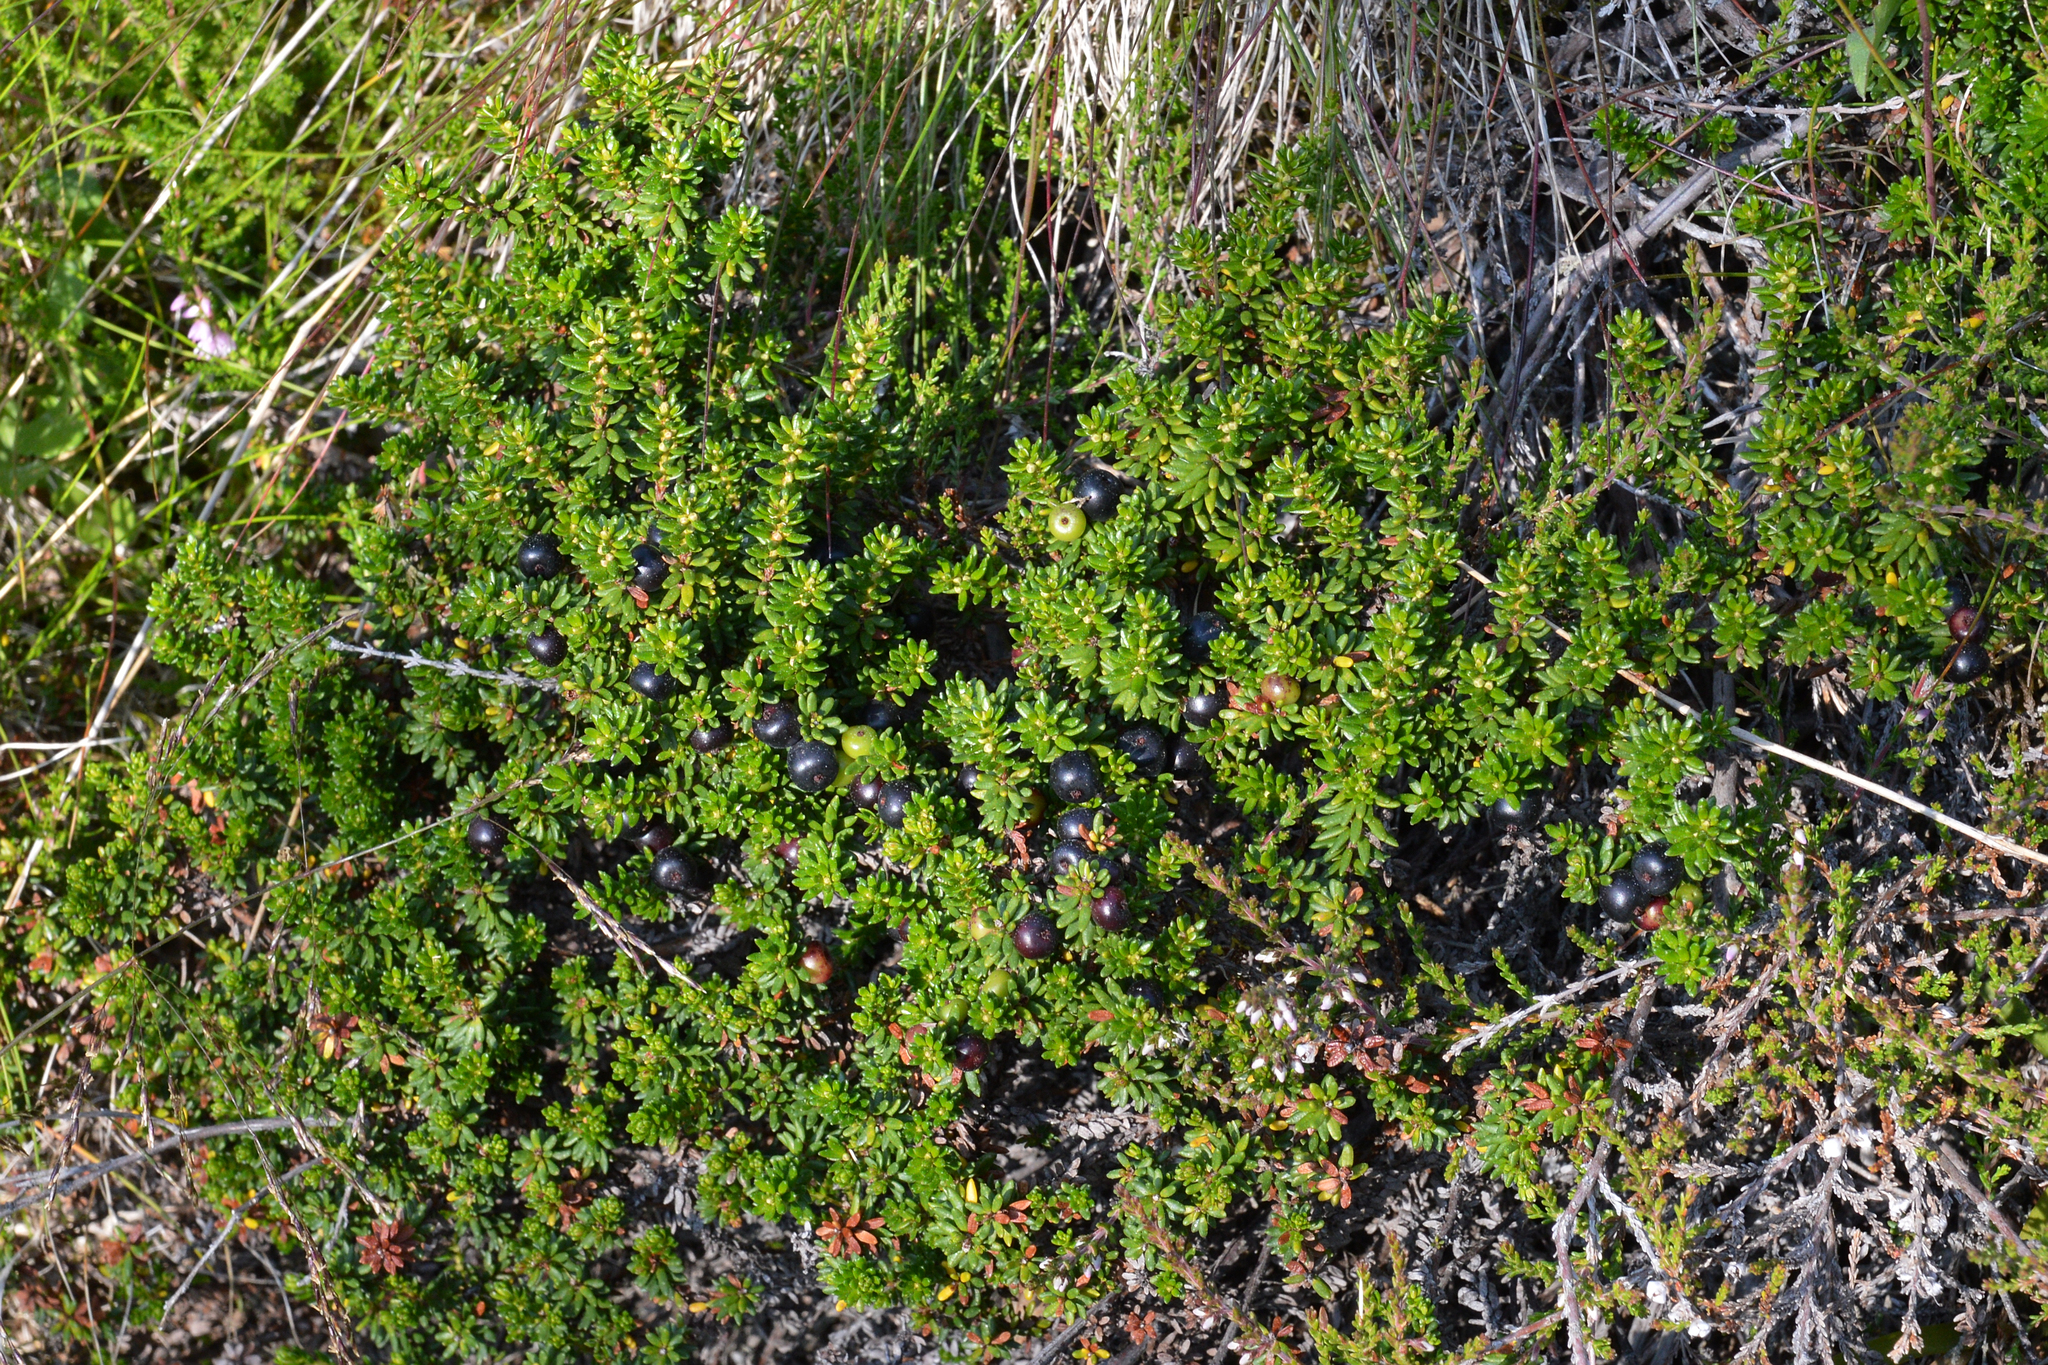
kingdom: Plantae
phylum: Tracheophyta
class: Magnoliopsida
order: Ericales
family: Ericaceae
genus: Empetrum
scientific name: Empetrum nigrum
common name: Black crowberry
